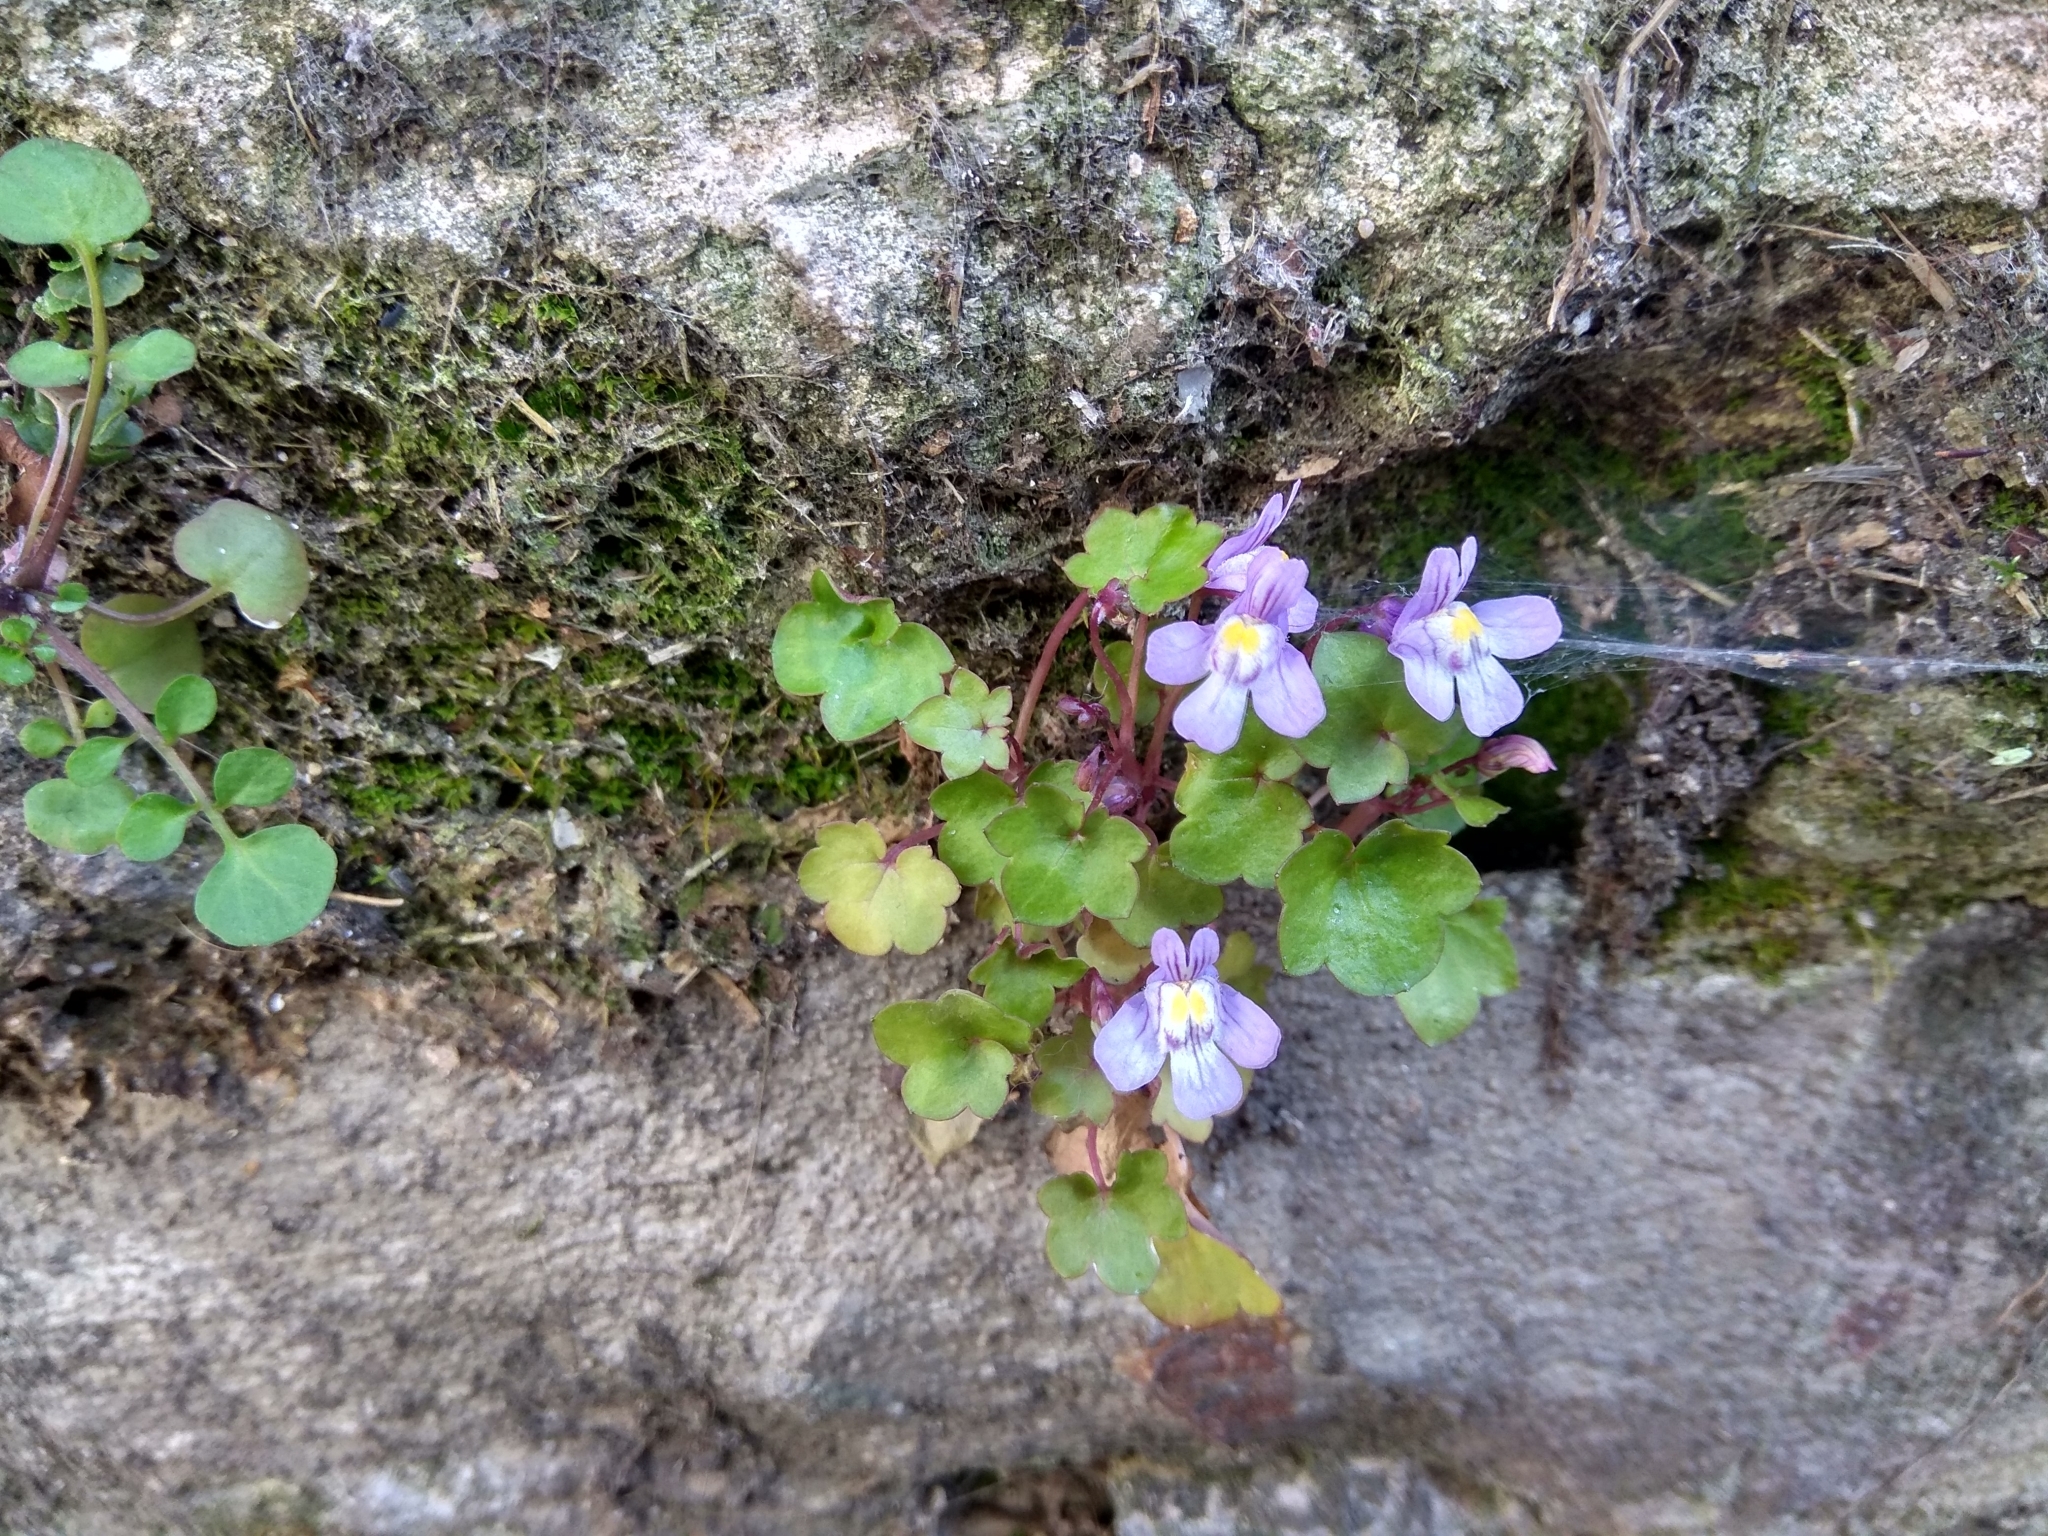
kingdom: Plantae
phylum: Tracheophyta
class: Magnoliopsida
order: Lamiales
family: Plantaginaceae
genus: Cymbalaria
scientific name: Cymbalaria muralis
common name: Ivy-leaved toadflax
